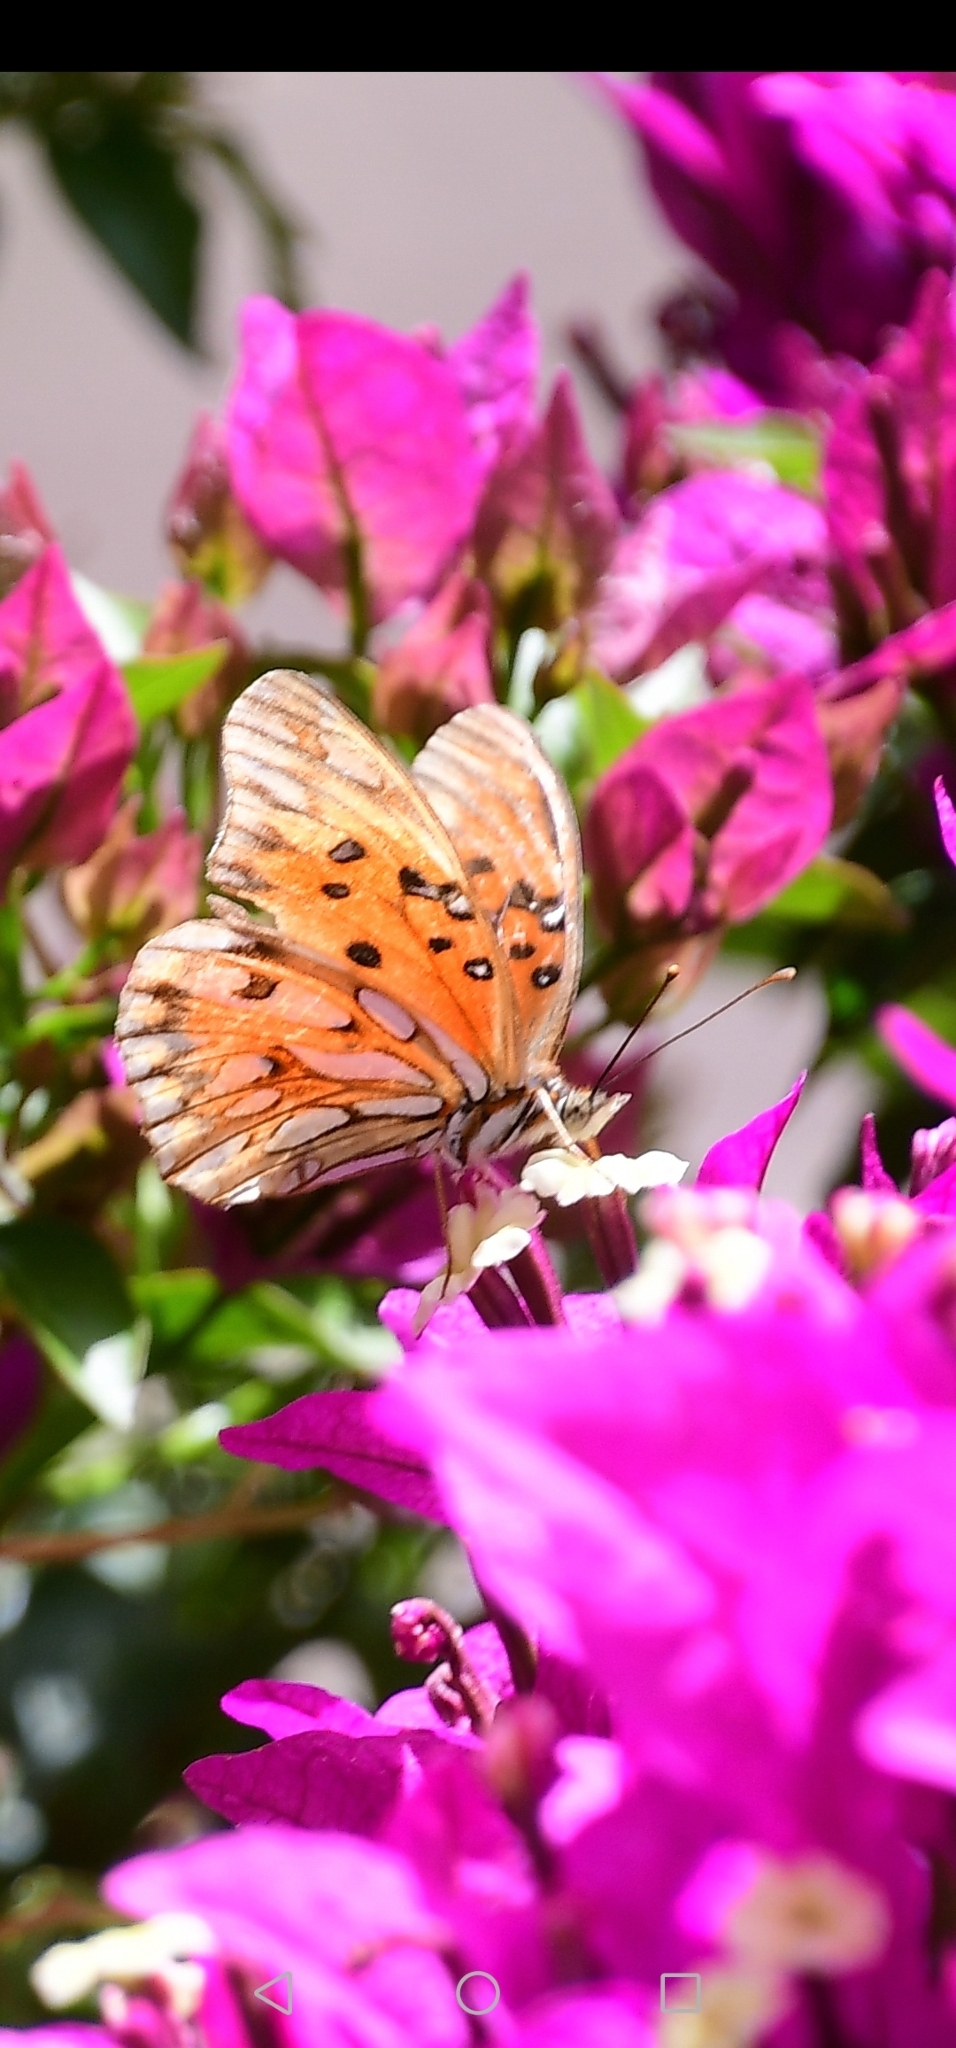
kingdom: Animalia
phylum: Arthropoda
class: Insecta
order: Lepidoptera
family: Nymphalidae
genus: Dione
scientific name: Dione vanillae
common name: Gulf fritillary
